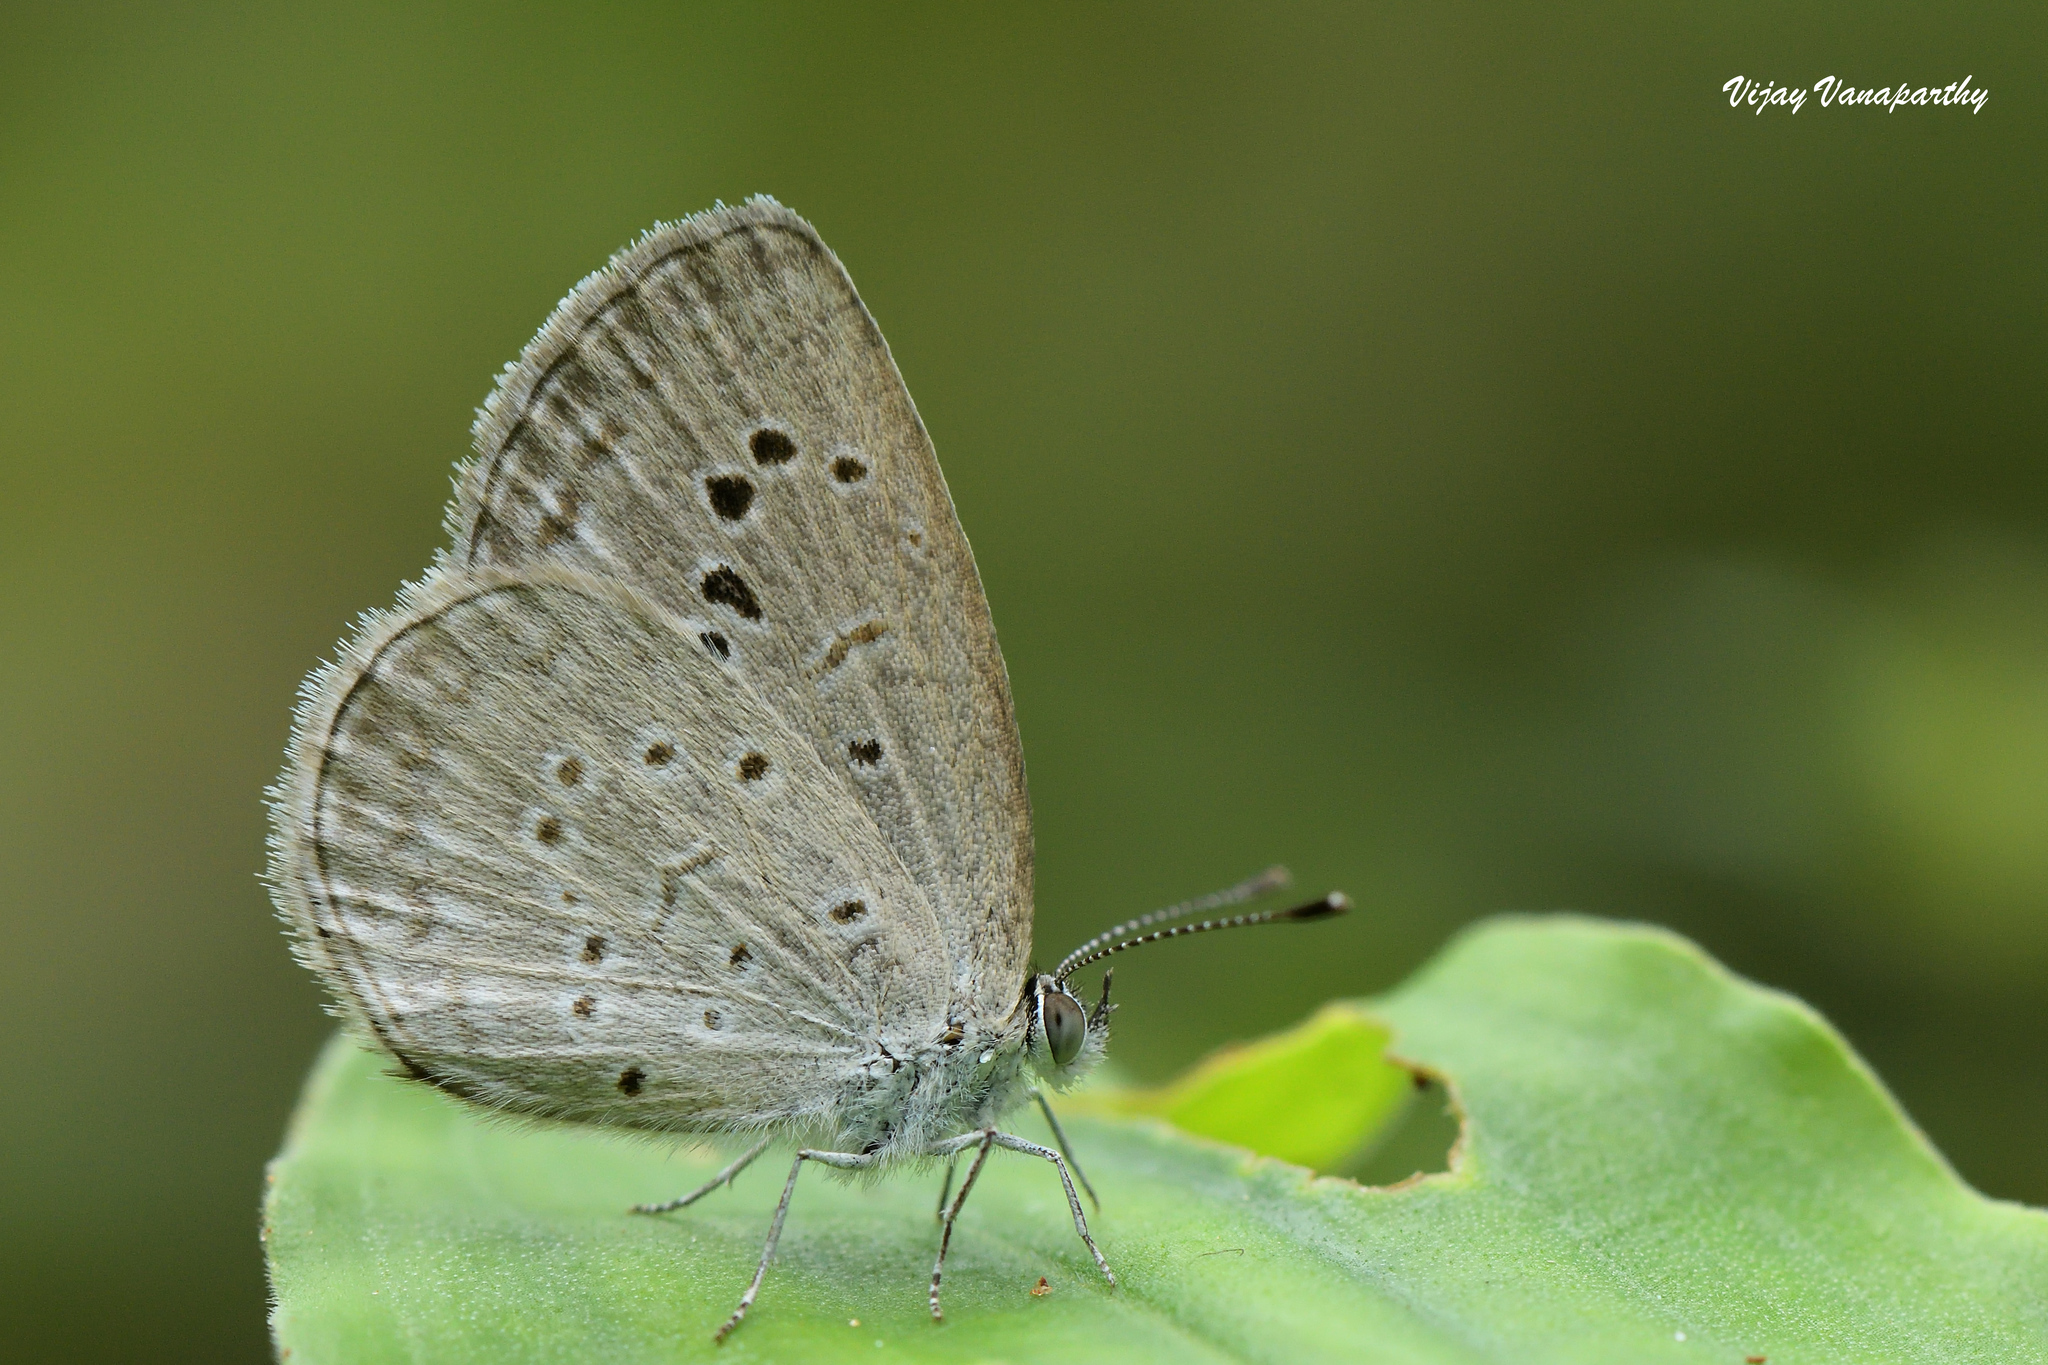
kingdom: Animalia
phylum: Arthropoda
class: Insecta
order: Lepidoptera
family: Lycaenidae
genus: Pseudozizeeria
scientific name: Pseudozizeeria maha
